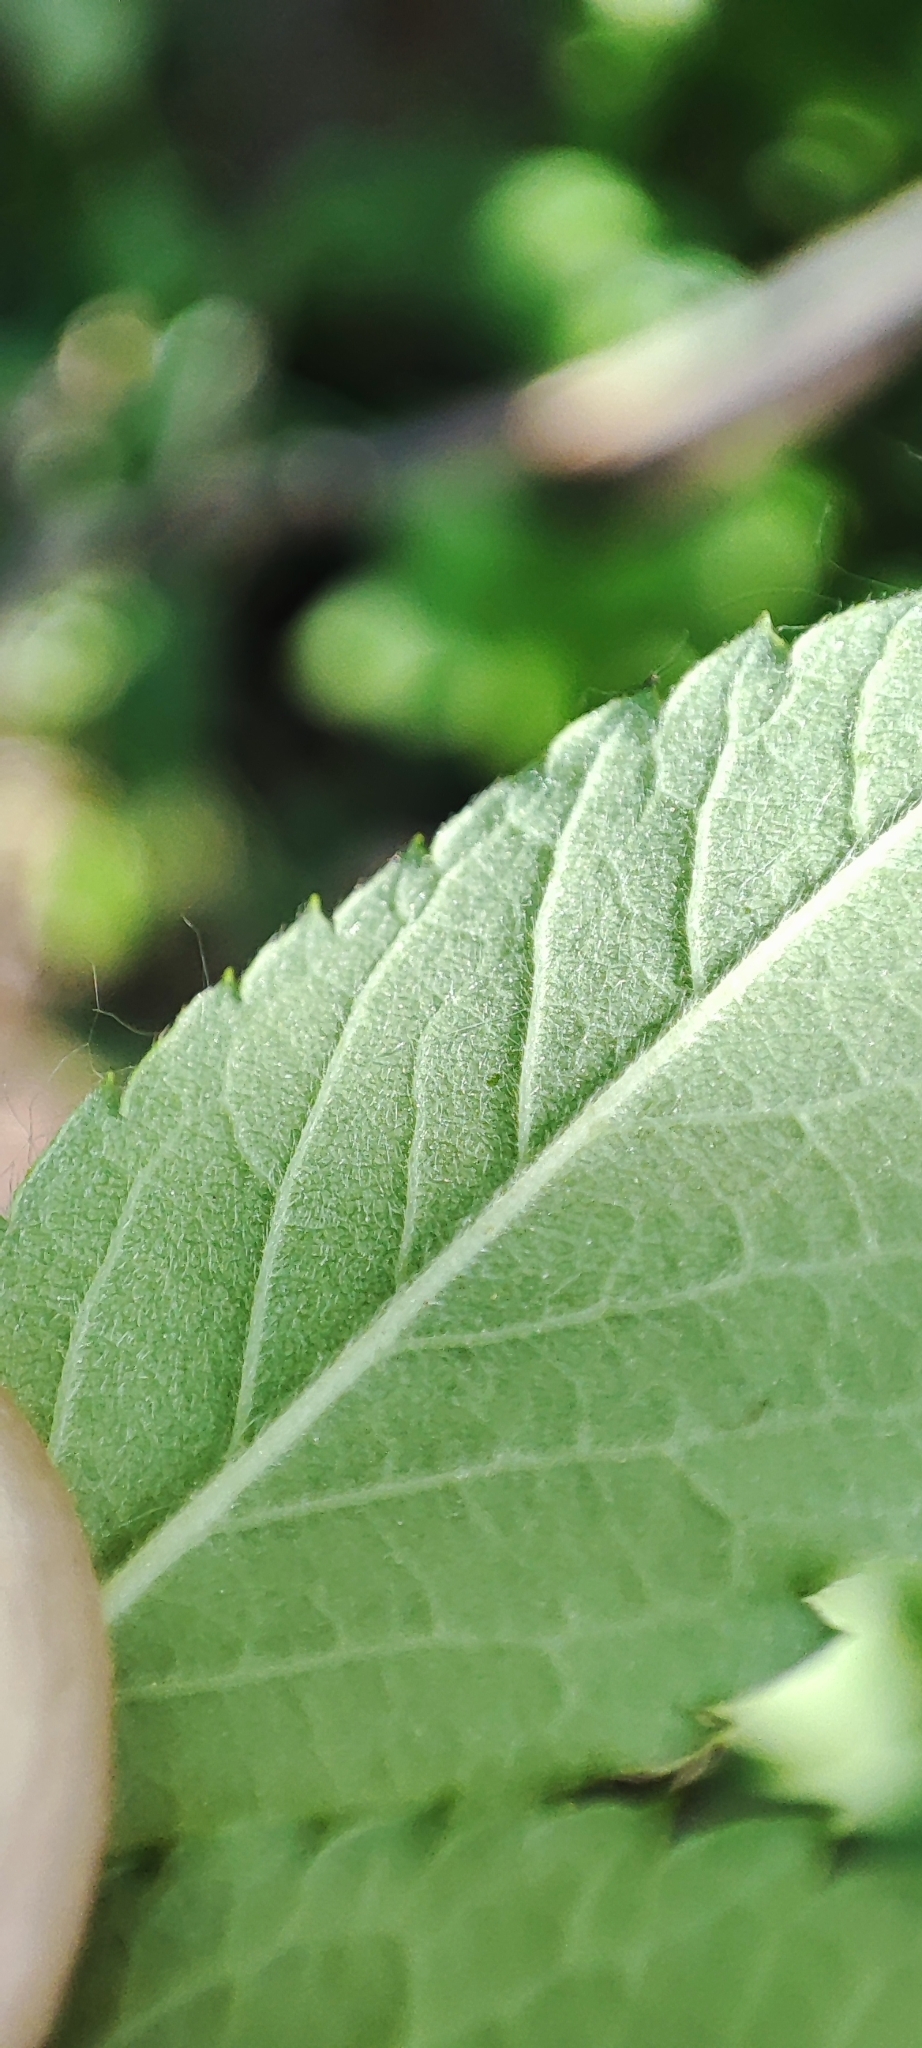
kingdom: Plantae
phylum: Tracheophyta
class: Magnoliopsida
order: Rosales
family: Rosaceae
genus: Rosa
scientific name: Rosa majalis
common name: Cinnamon rose
